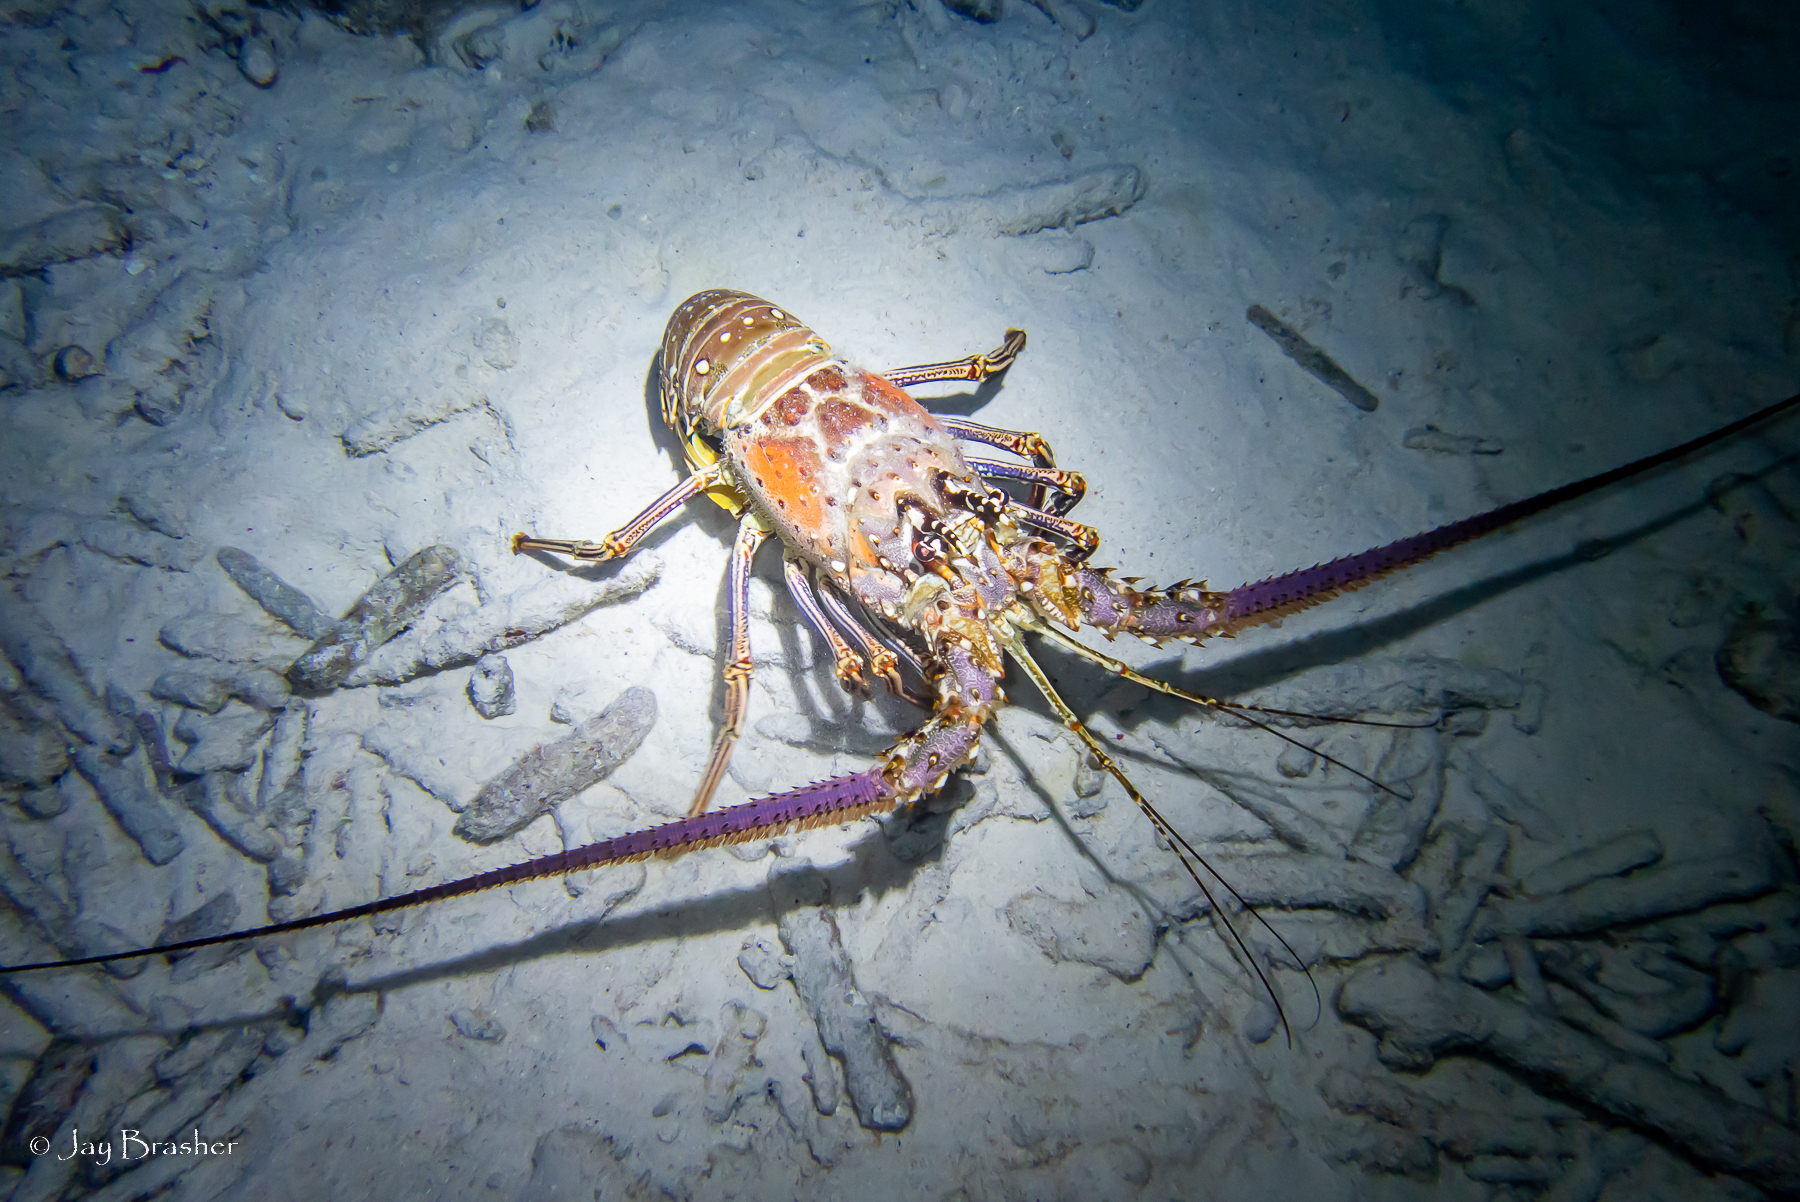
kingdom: Animalia
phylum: Arthropoda
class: Malacostraca
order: Decapoda
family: Palinuridae
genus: Panulirus
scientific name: Panulirus argus
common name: Caribbean spiny lobster
